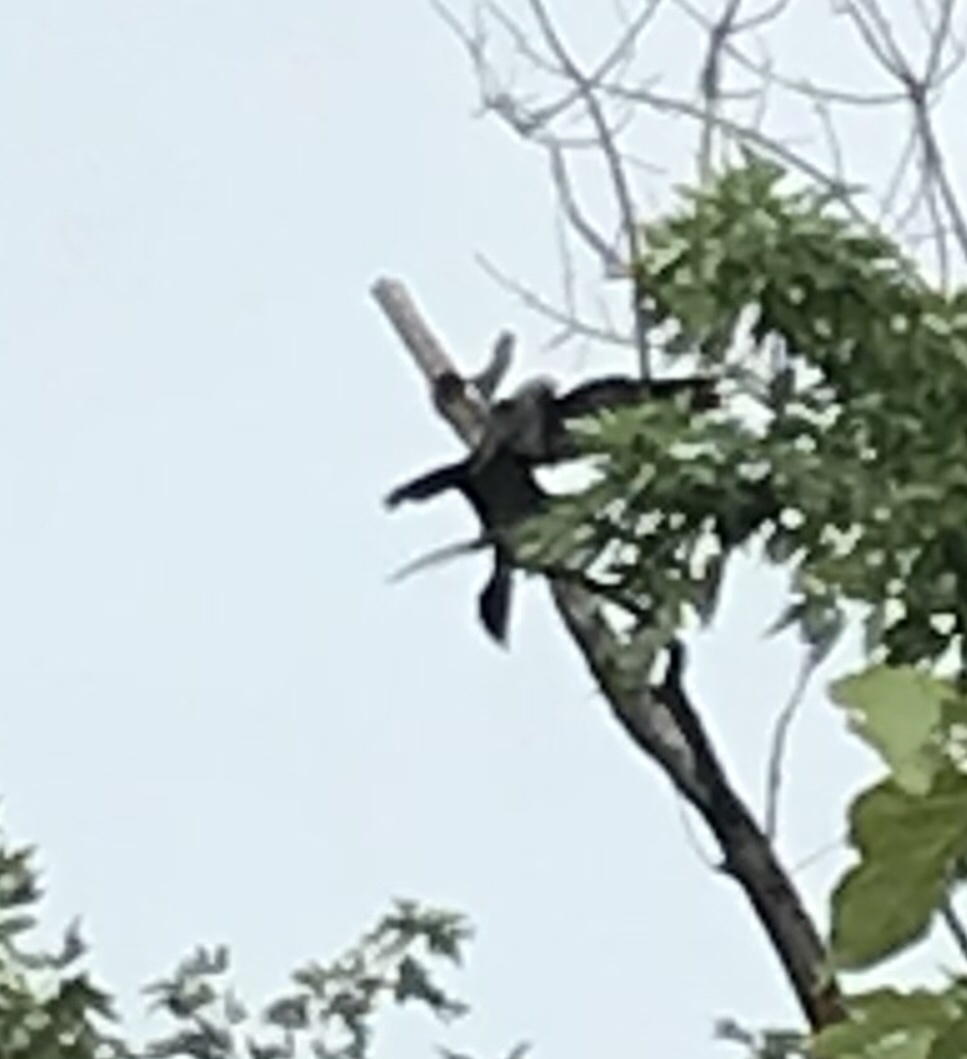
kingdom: Animalia
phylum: Chordata
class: Aves
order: Accipitriformes
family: Accipitridae
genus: Ictinia
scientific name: Ictinia mississippiensis
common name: Mississippi kite
